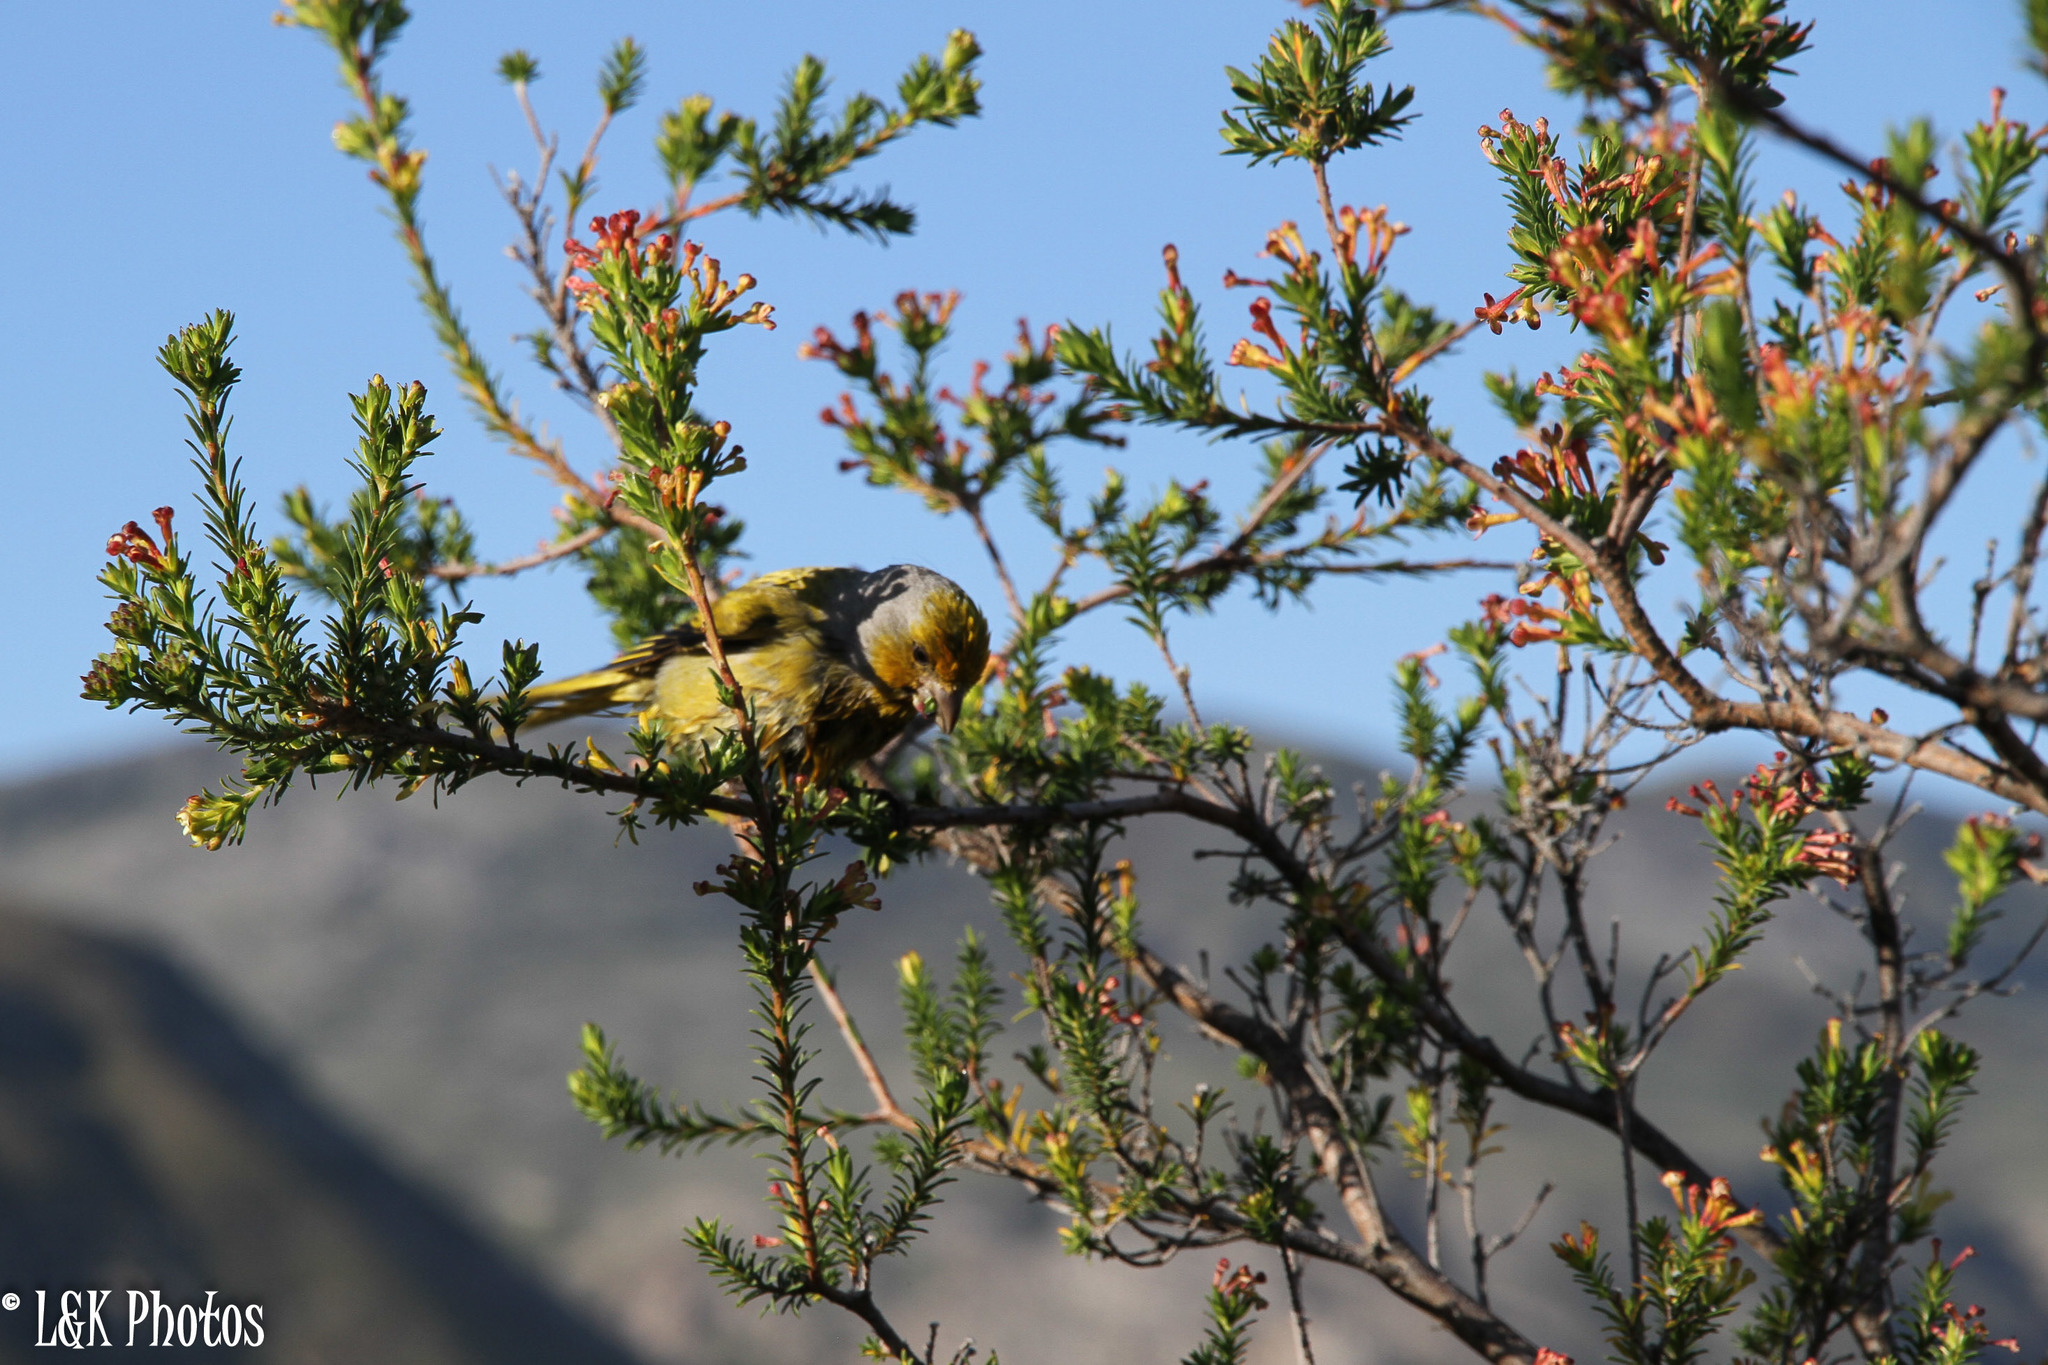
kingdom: Animalia
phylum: Chordata
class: Aves
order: Passeriformes
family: Fringillidae
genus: Serinus
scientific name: Serinus canicollis
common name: Cape canary
